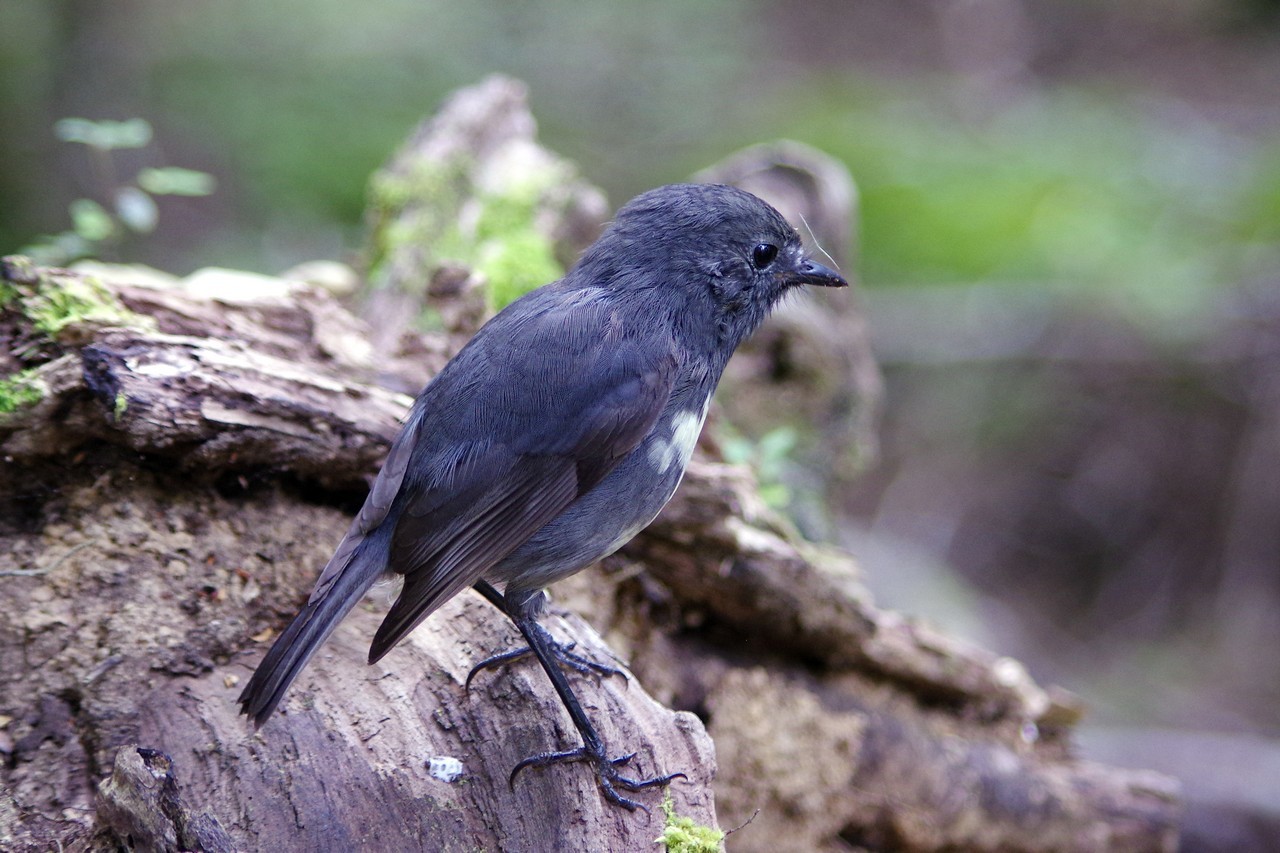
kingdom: Animalia
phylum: Chordata
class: Aves
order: Passeriformes
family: Petroicidae
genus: Petroica
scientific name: Petroica australis
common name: New zealand robin
